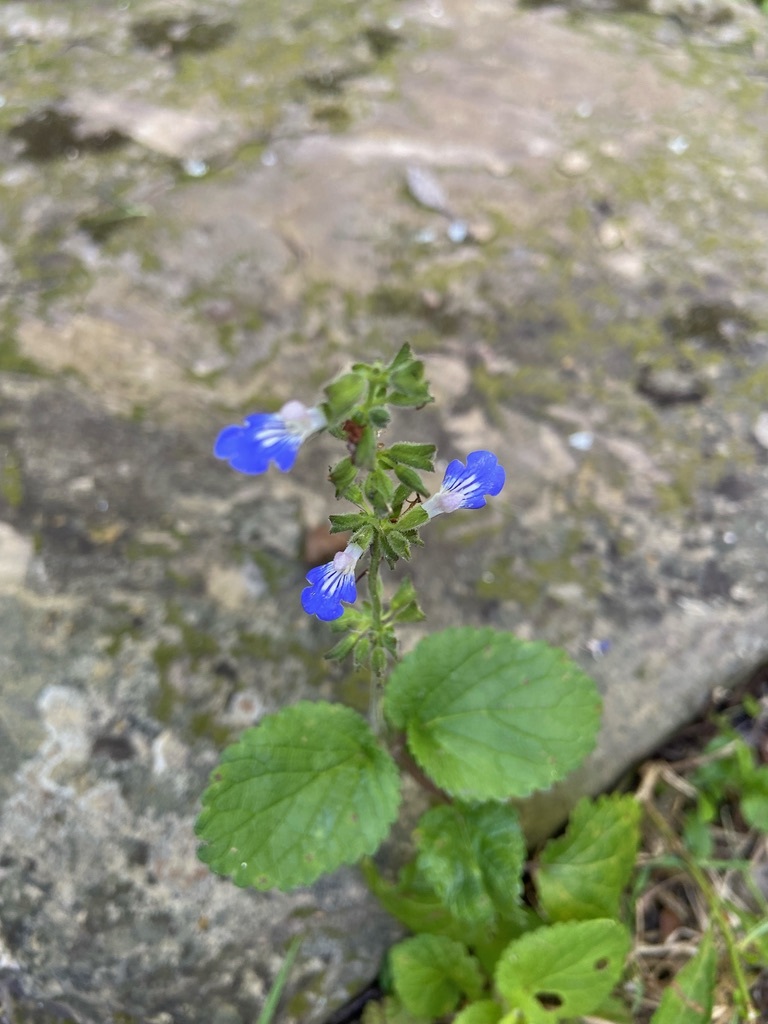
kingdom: Plantae
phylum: Tracheophyta
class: Magnoliopsida
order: Lamiales
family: Lamiaceae
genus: Salvia
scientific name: Salvia procurrens
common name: Blue creeper
